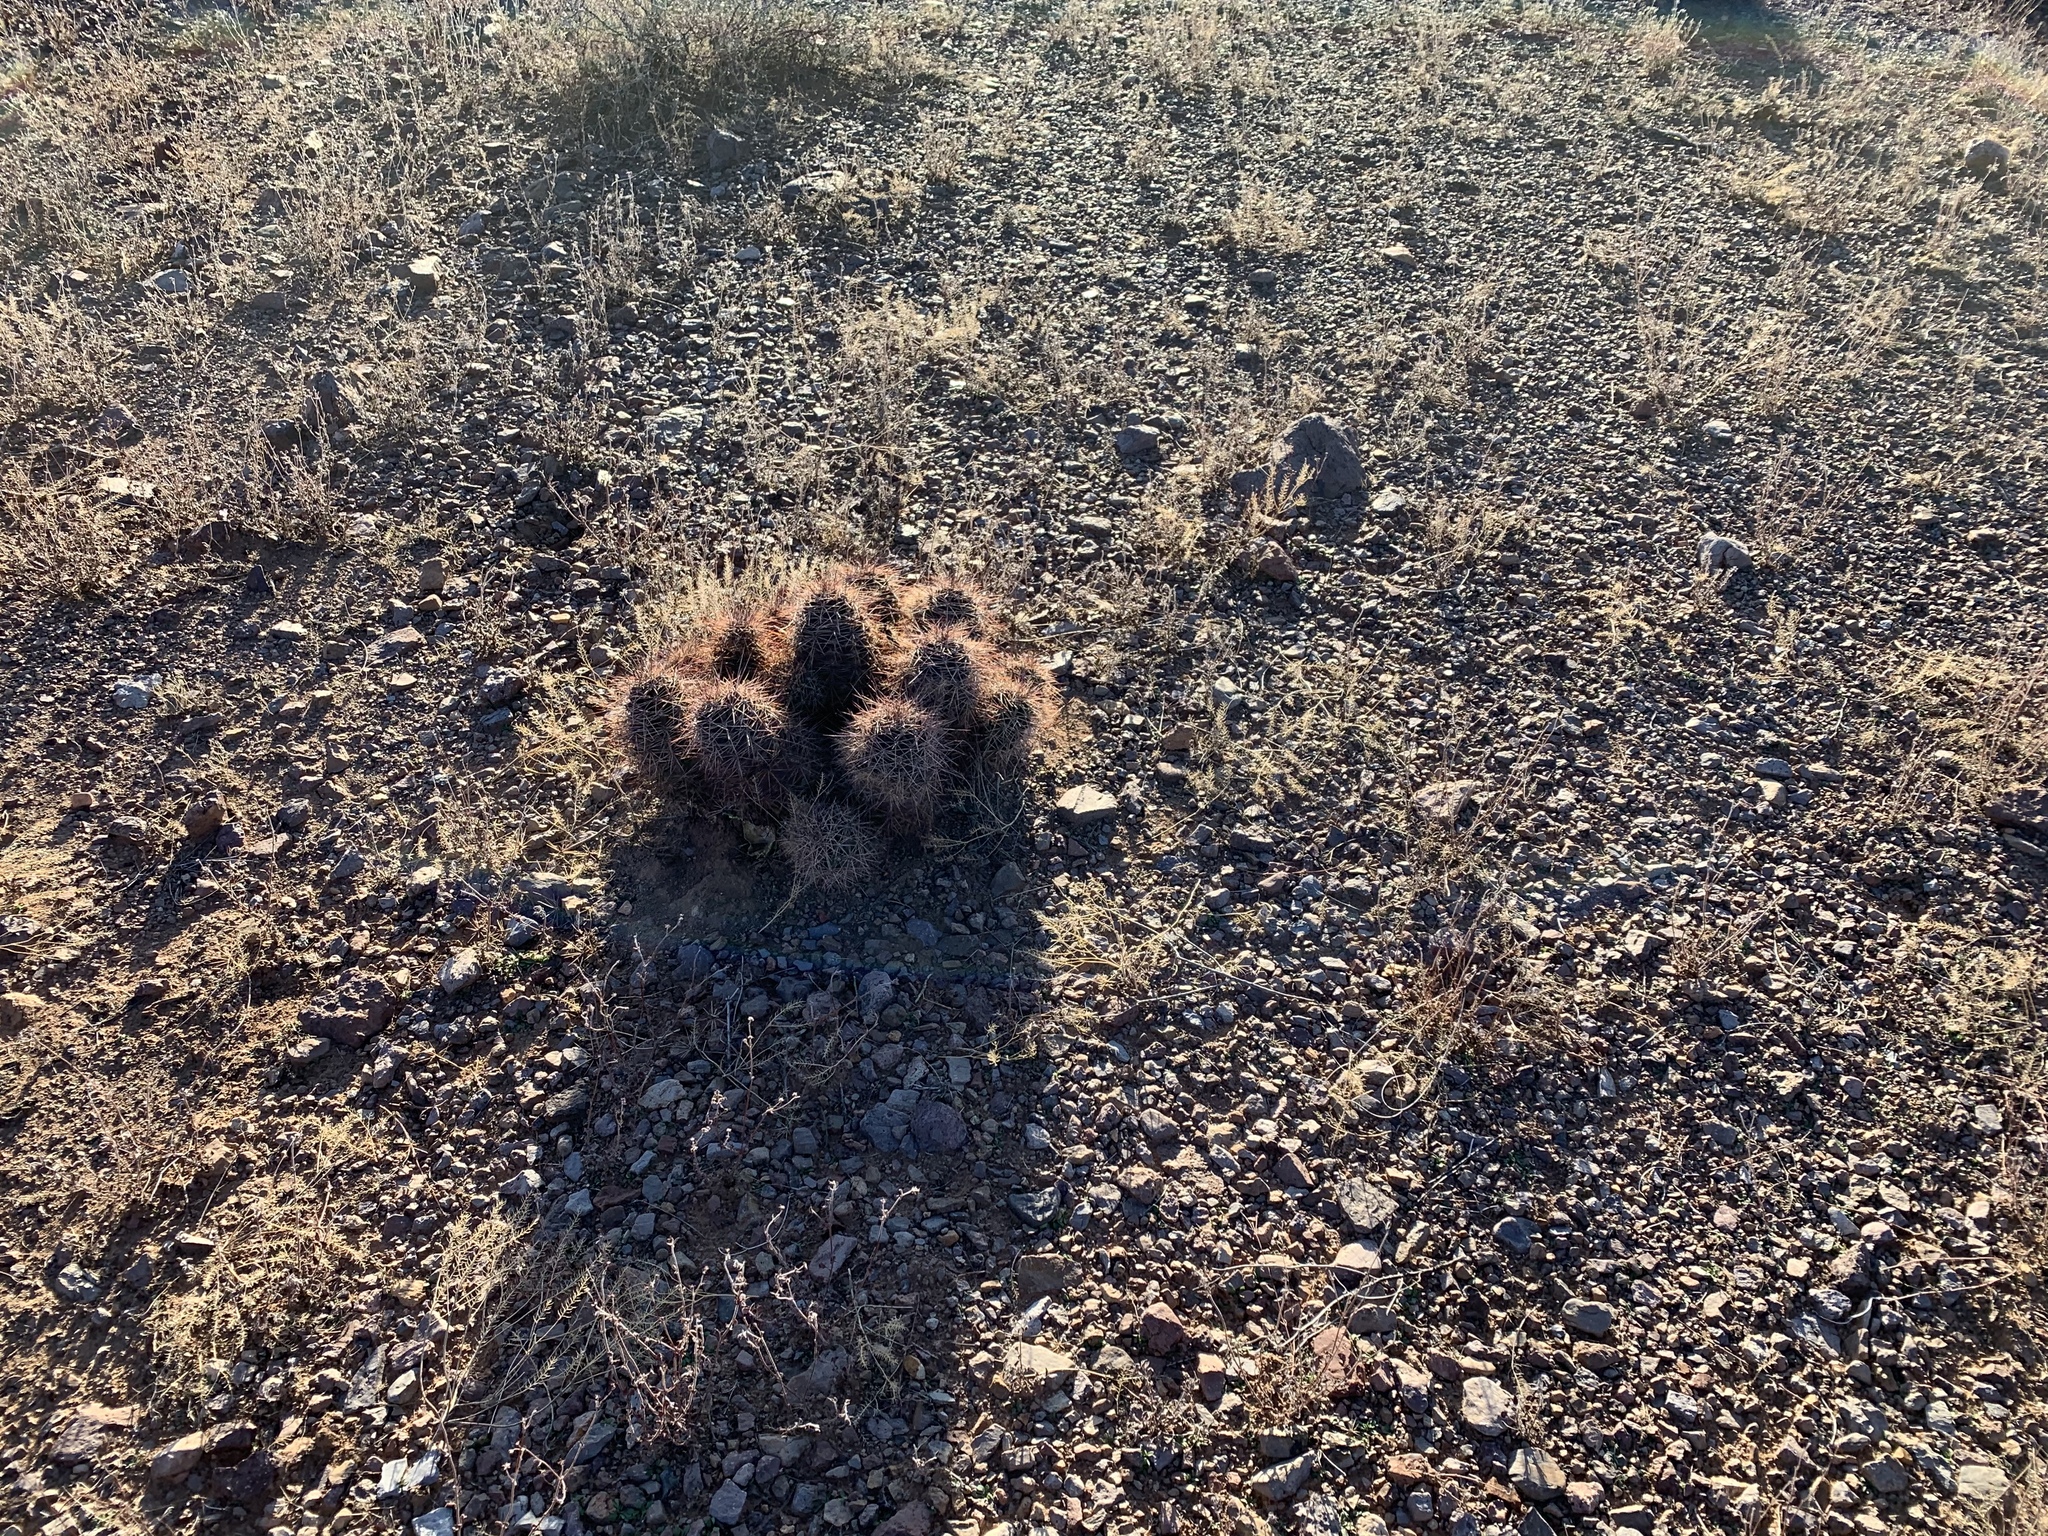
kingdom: Plantae
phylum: Tracheophyta
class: Magnoliopsida
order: Caryophyllales
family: Cactaceae
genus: Echinocereus
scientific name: Echinocereus coccineus
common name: Scarlet hedgehog cactus
